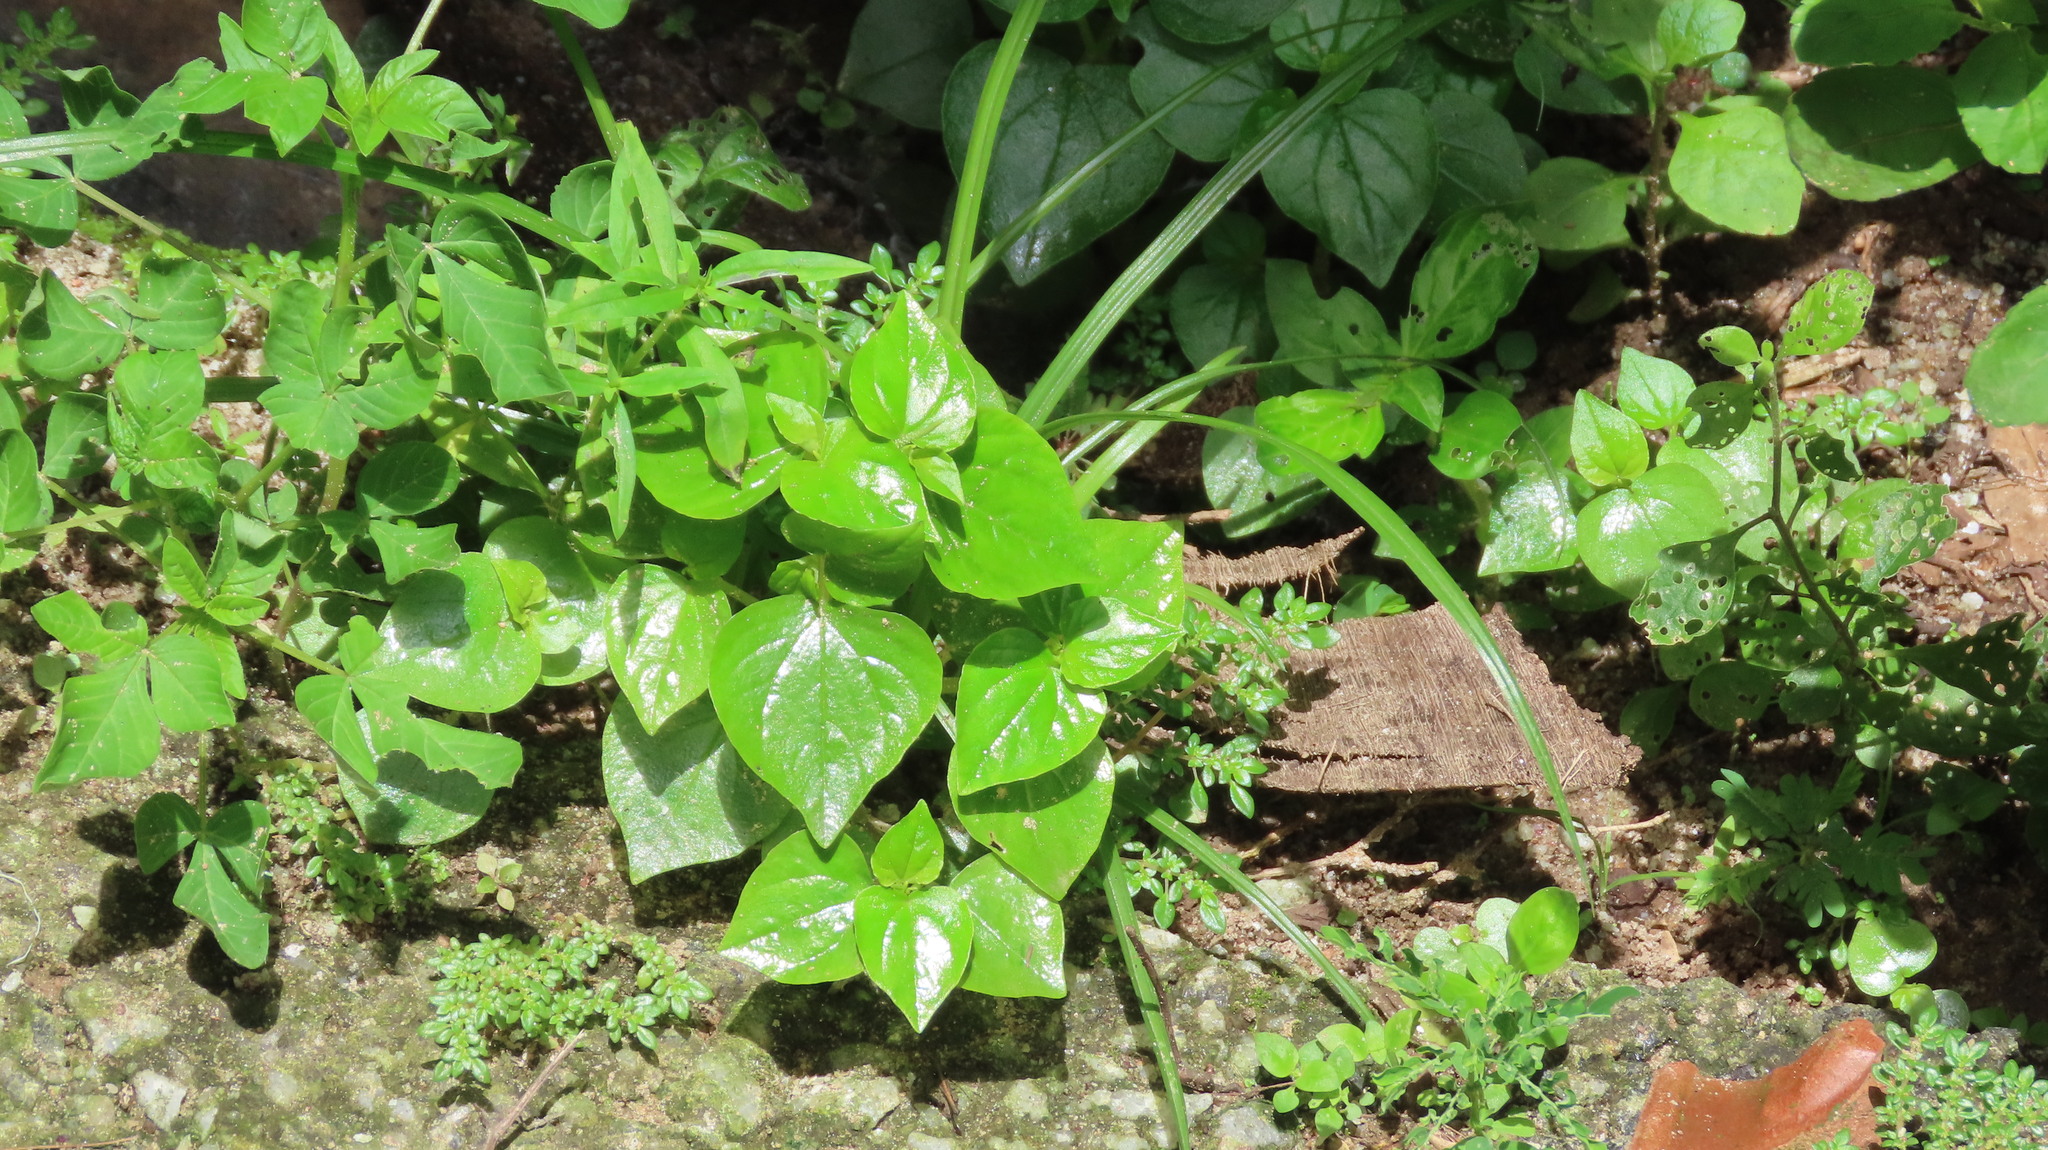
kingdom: Plantae
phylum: Tracheophyta
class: Magnoliopsida
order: Piperales
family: Piperaceae
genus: Peperomia
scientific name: Peperomia pellucida
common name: Man to man
